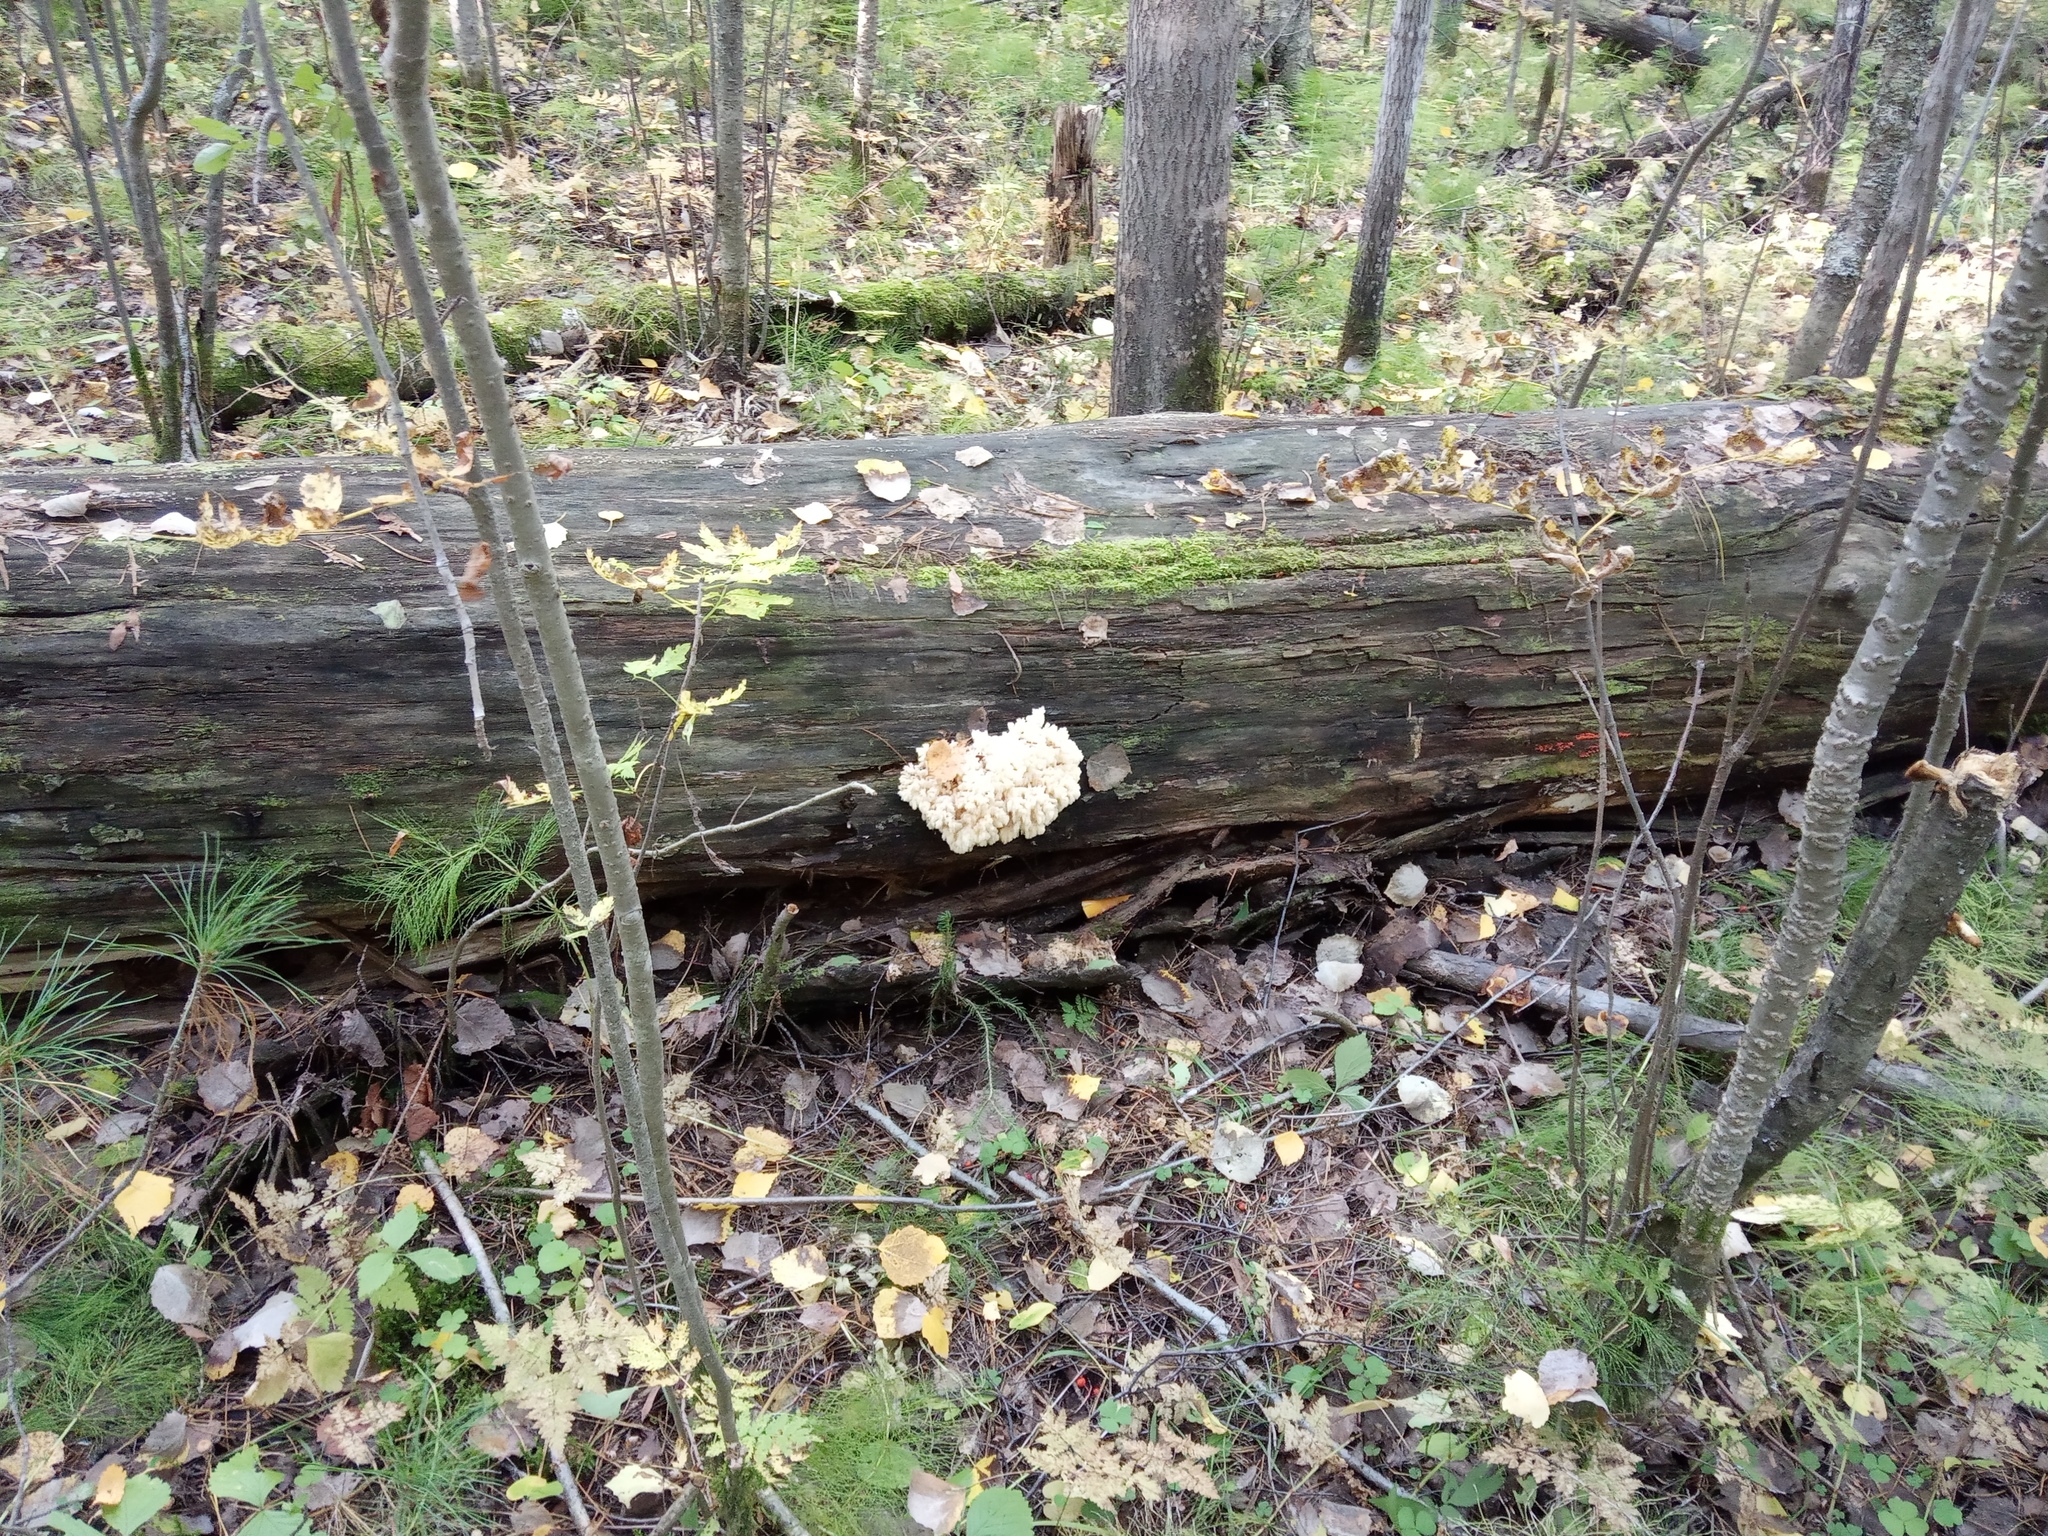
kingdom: Fungi
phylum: Basidiomycota
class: Agaricomycetes
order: Russulales
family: Hericiaceae
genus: Hericium
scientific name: Hericium coralloides
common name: Coral tooth
